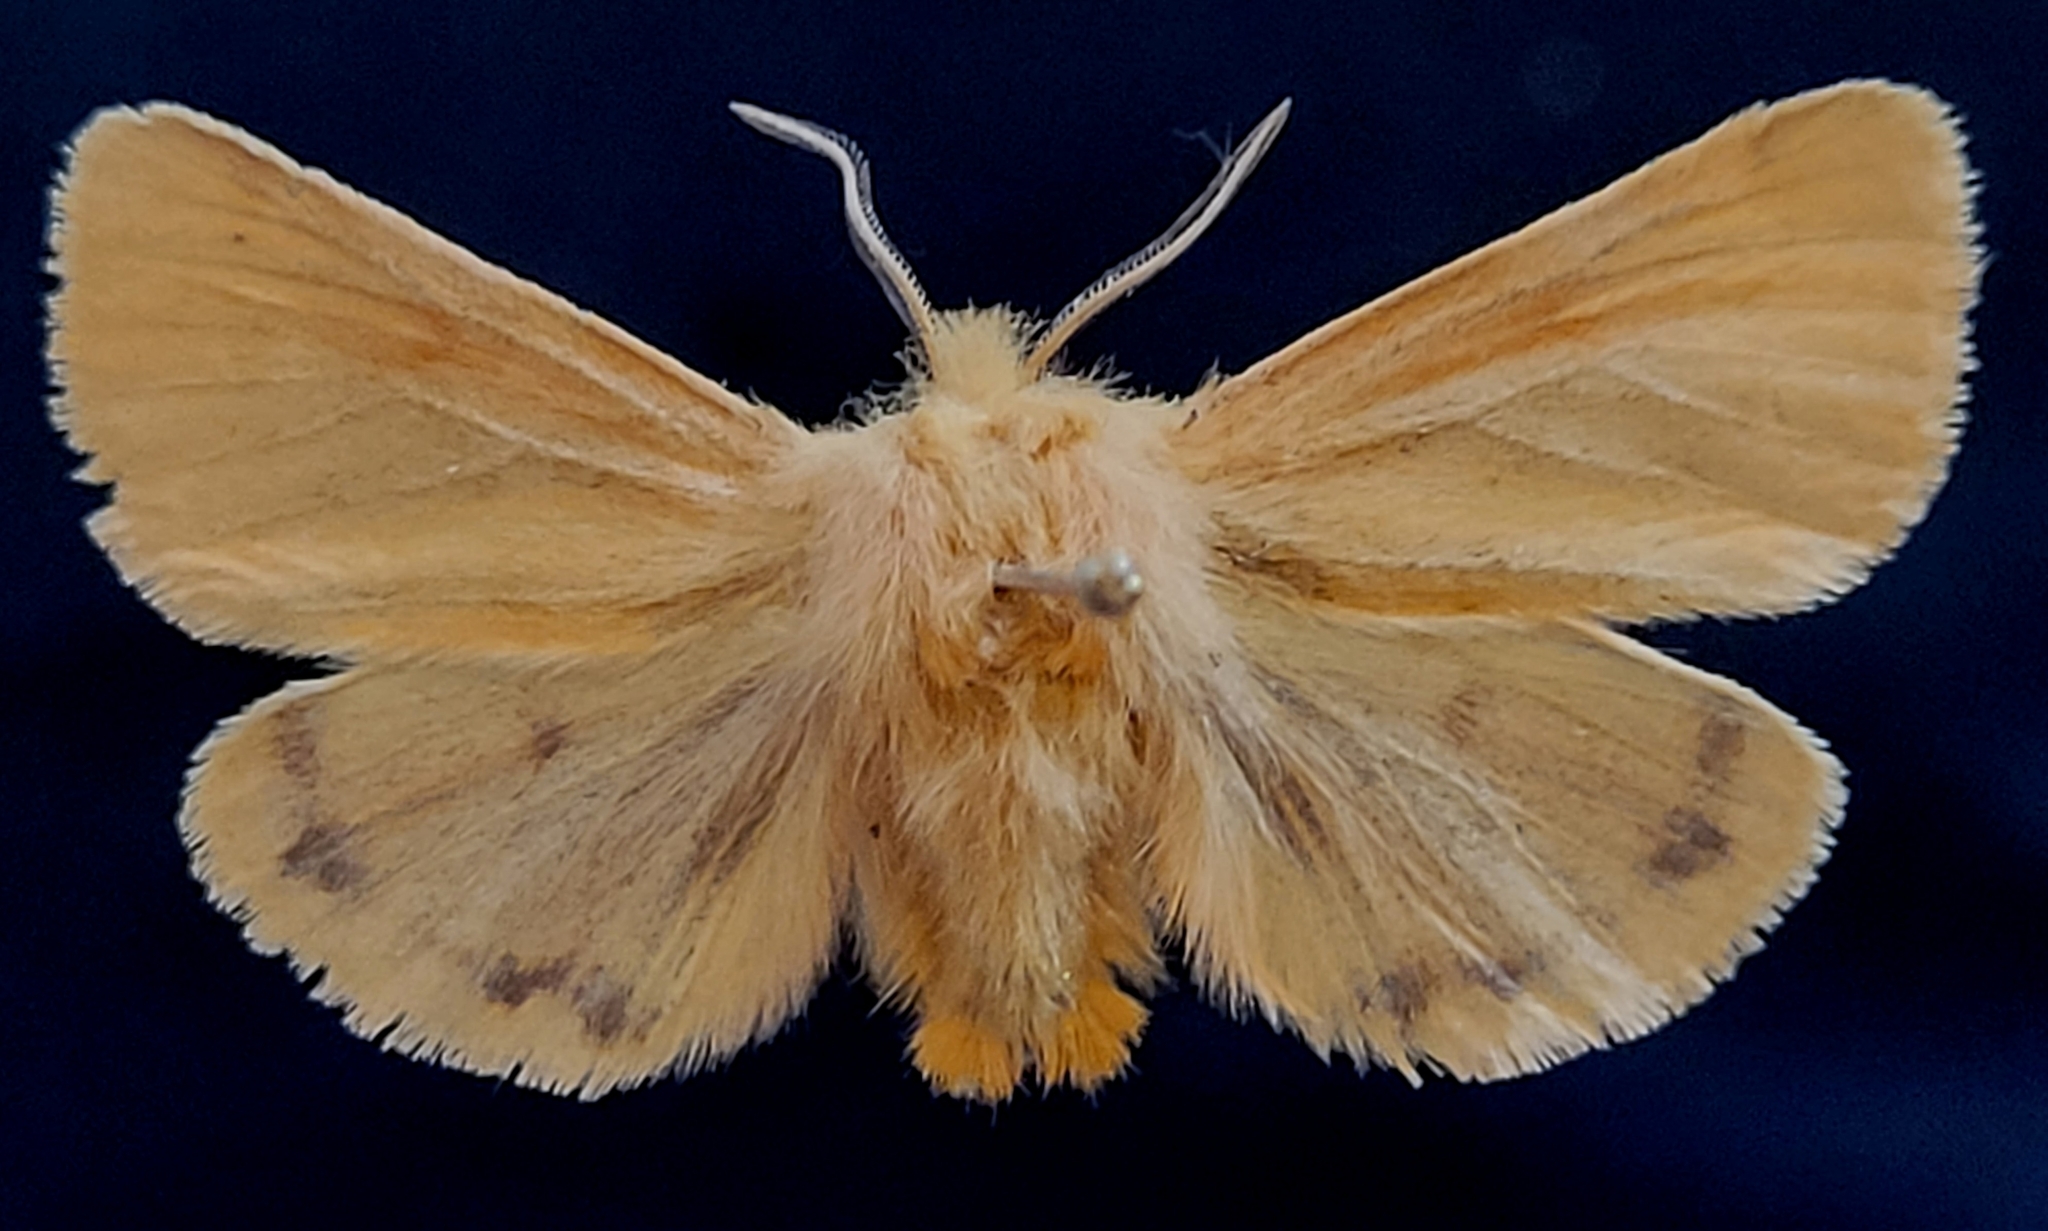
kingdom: Animalia
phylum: Arthropoda
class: Insecta
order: Lepidoptera
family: Erebidae
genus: Spilosoma
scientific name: Spilosoma vagans
